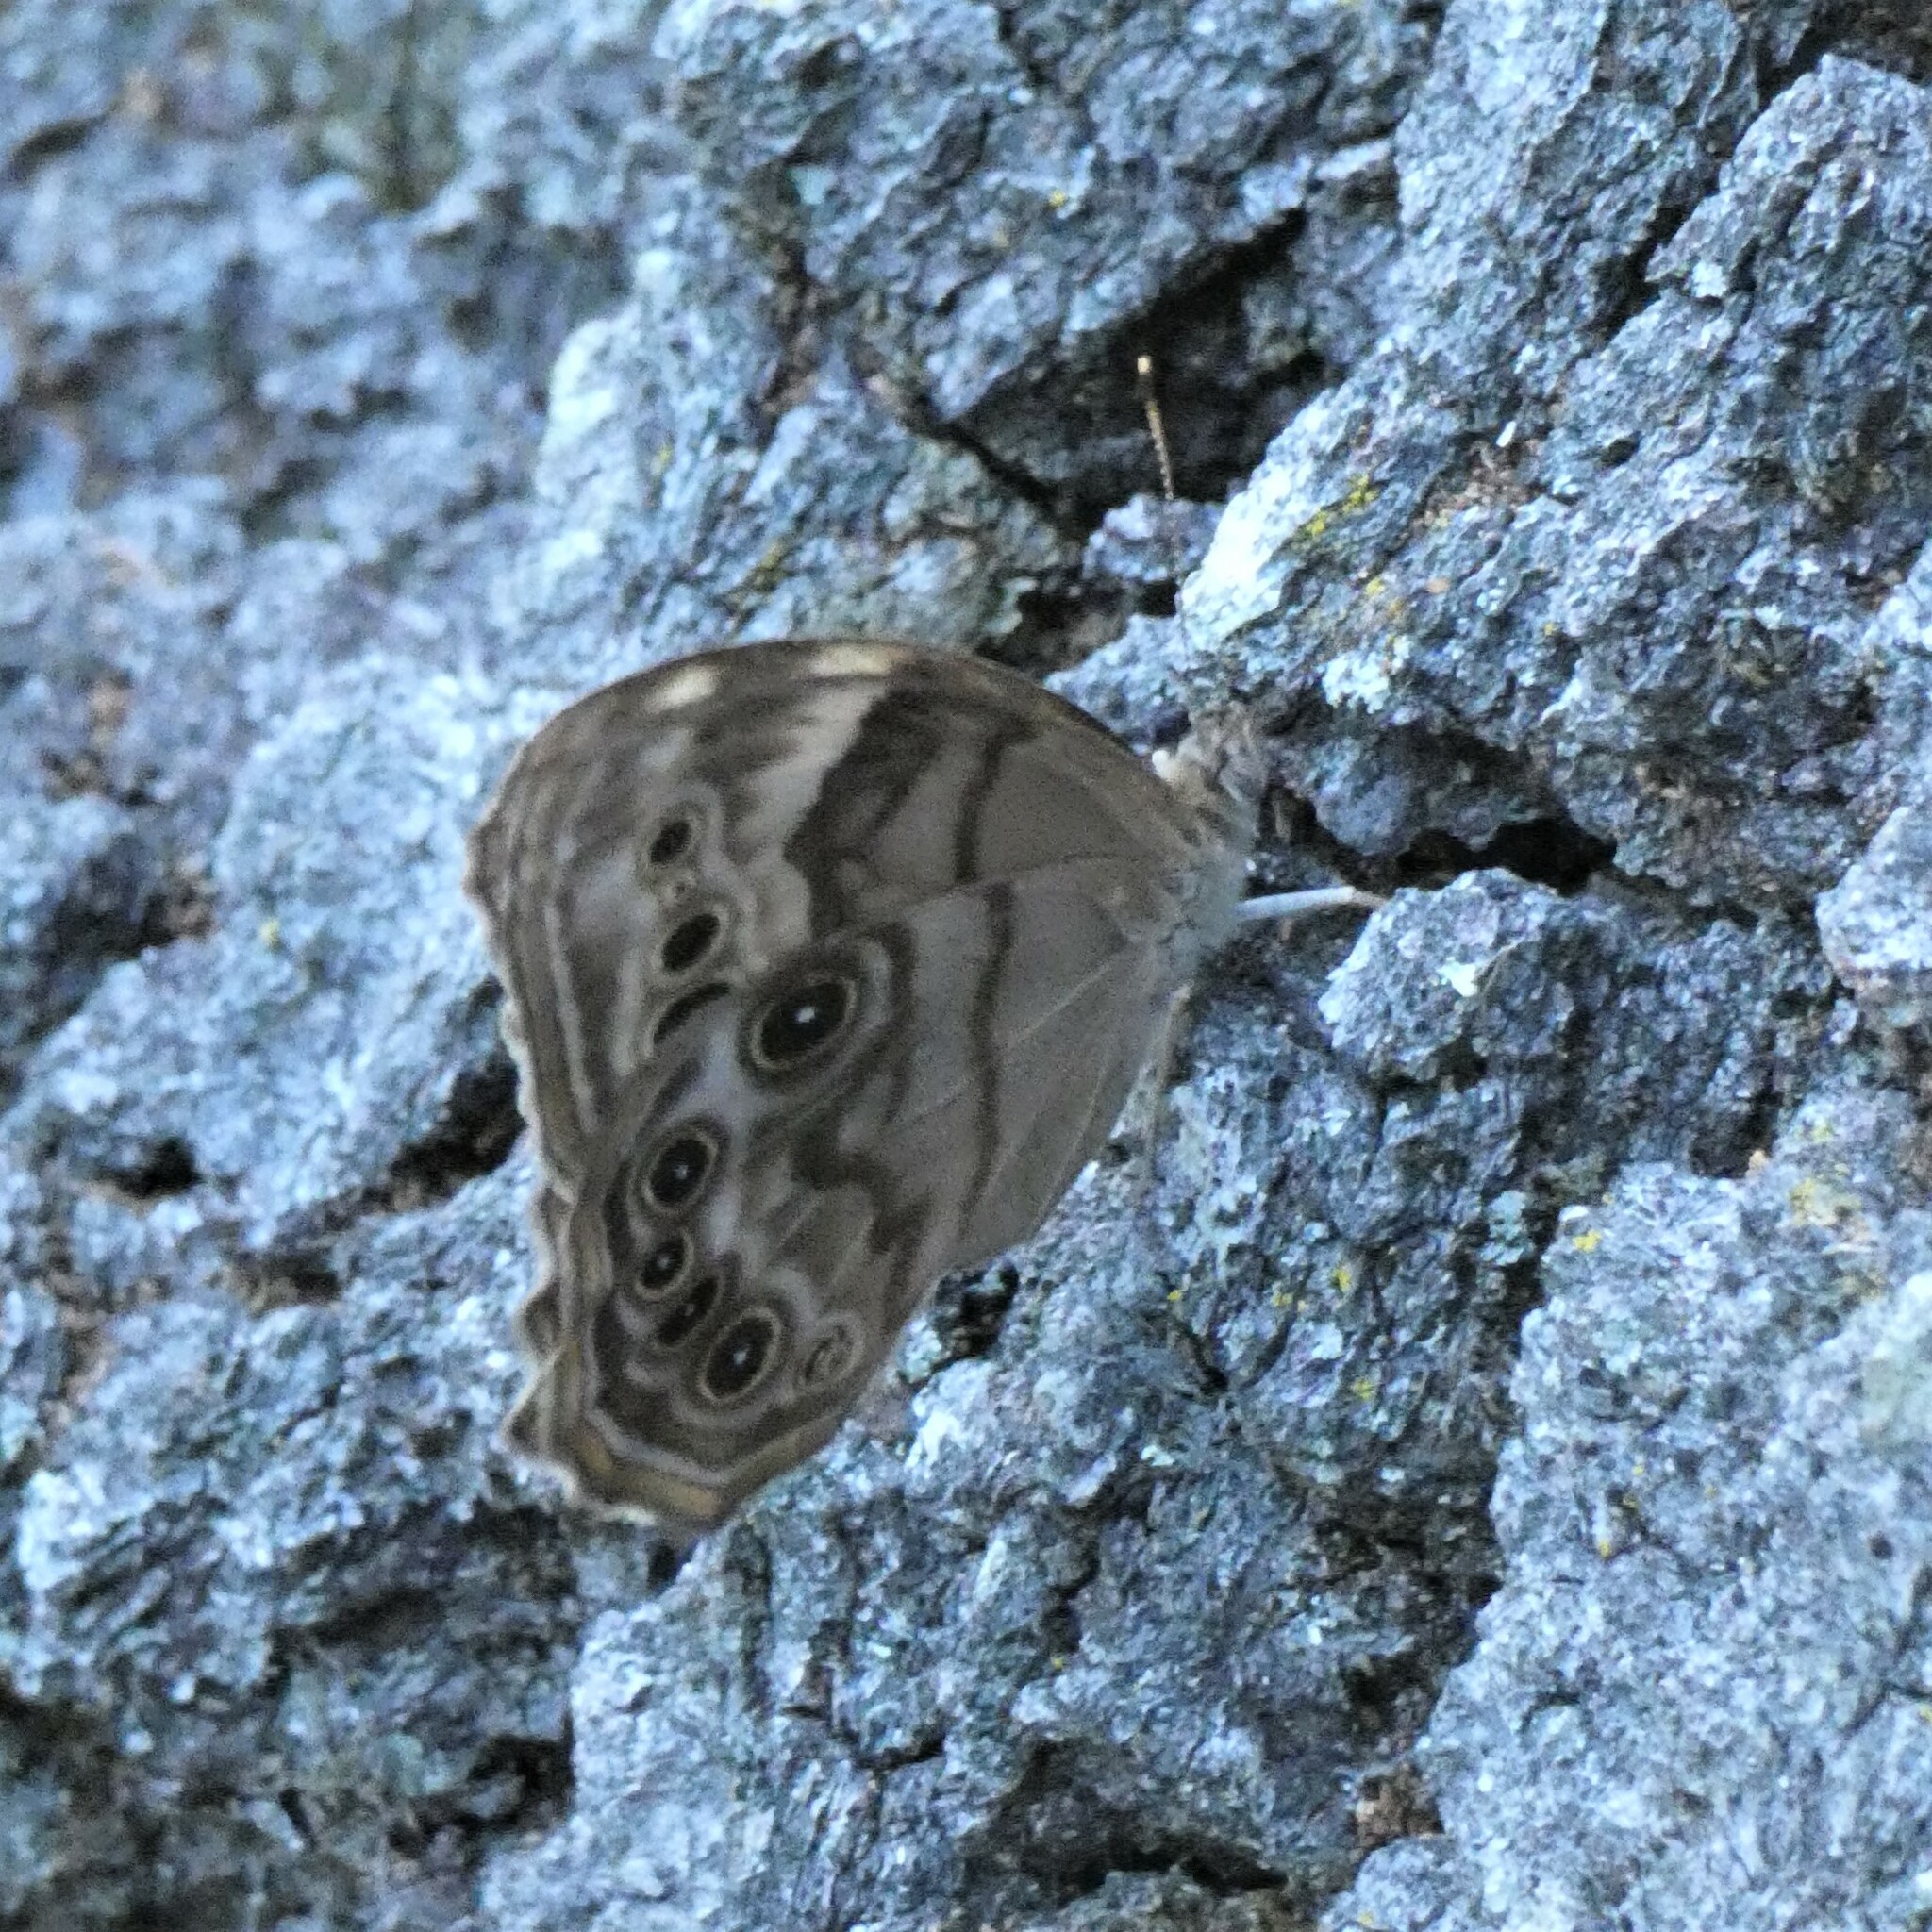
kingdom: Animalia
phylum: Arthropoda
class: Insecta
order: Lepidoptera
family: Nymphalidae
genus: Lethe
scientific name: Lethe anthedon
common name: Northern pearly-eye
